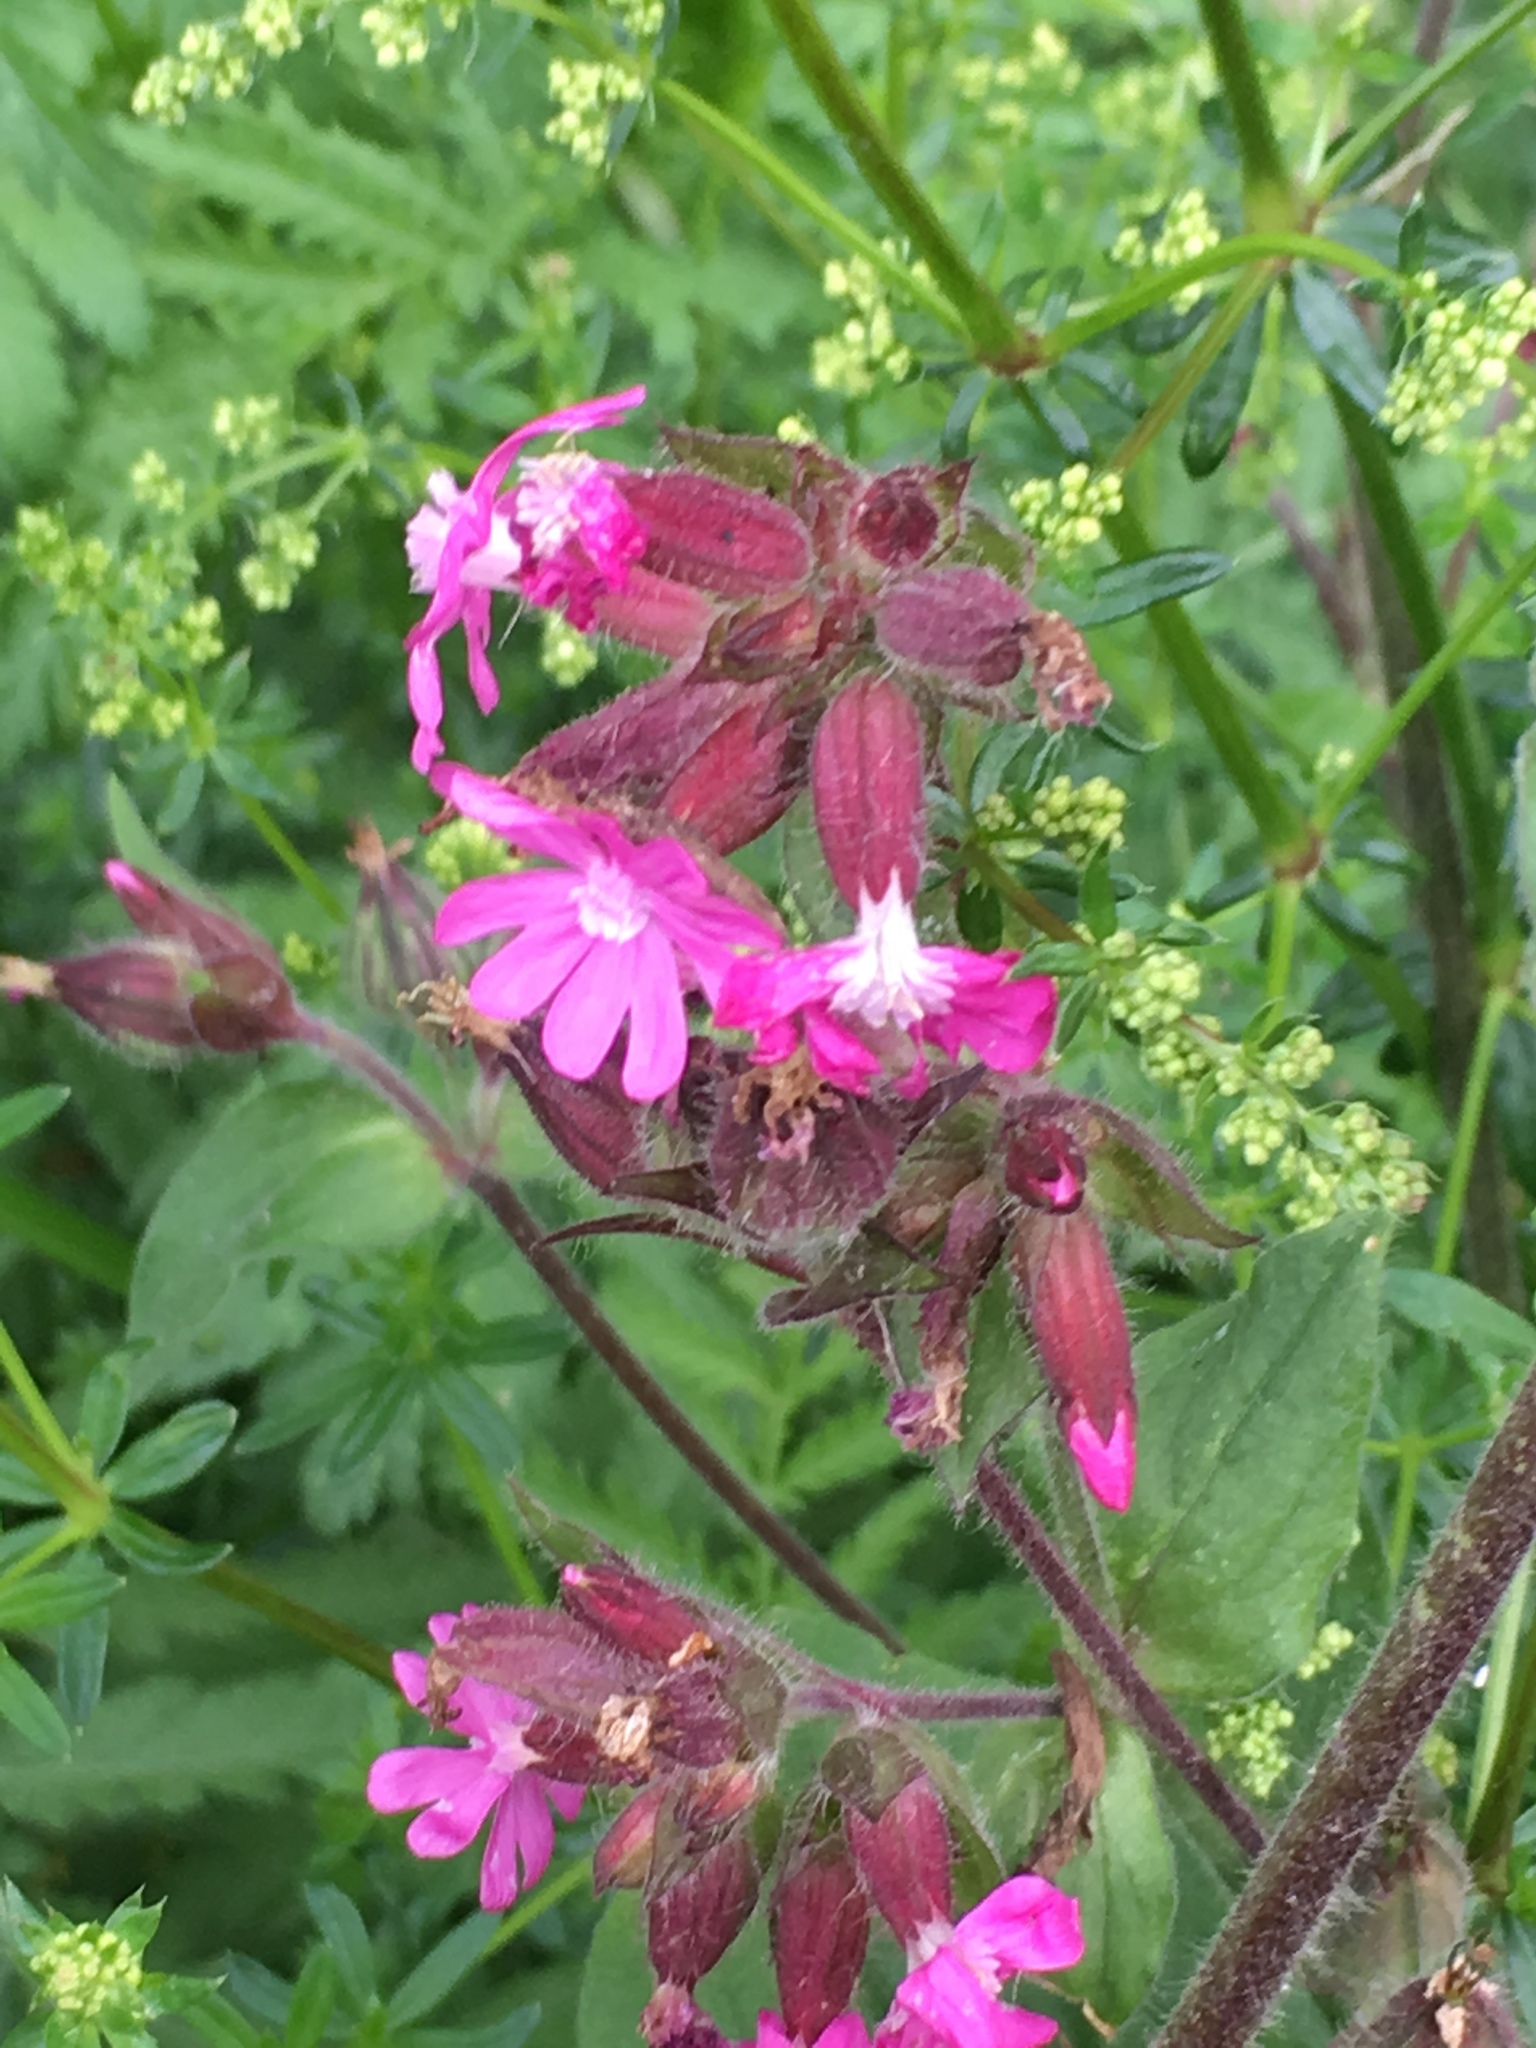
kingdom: Plantae
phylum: Tracheophyta
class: Magnoliopsida
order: Caryophyllales
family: Caryophyllaceae
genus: Silene
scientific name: Silene dioica
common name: Red campion
